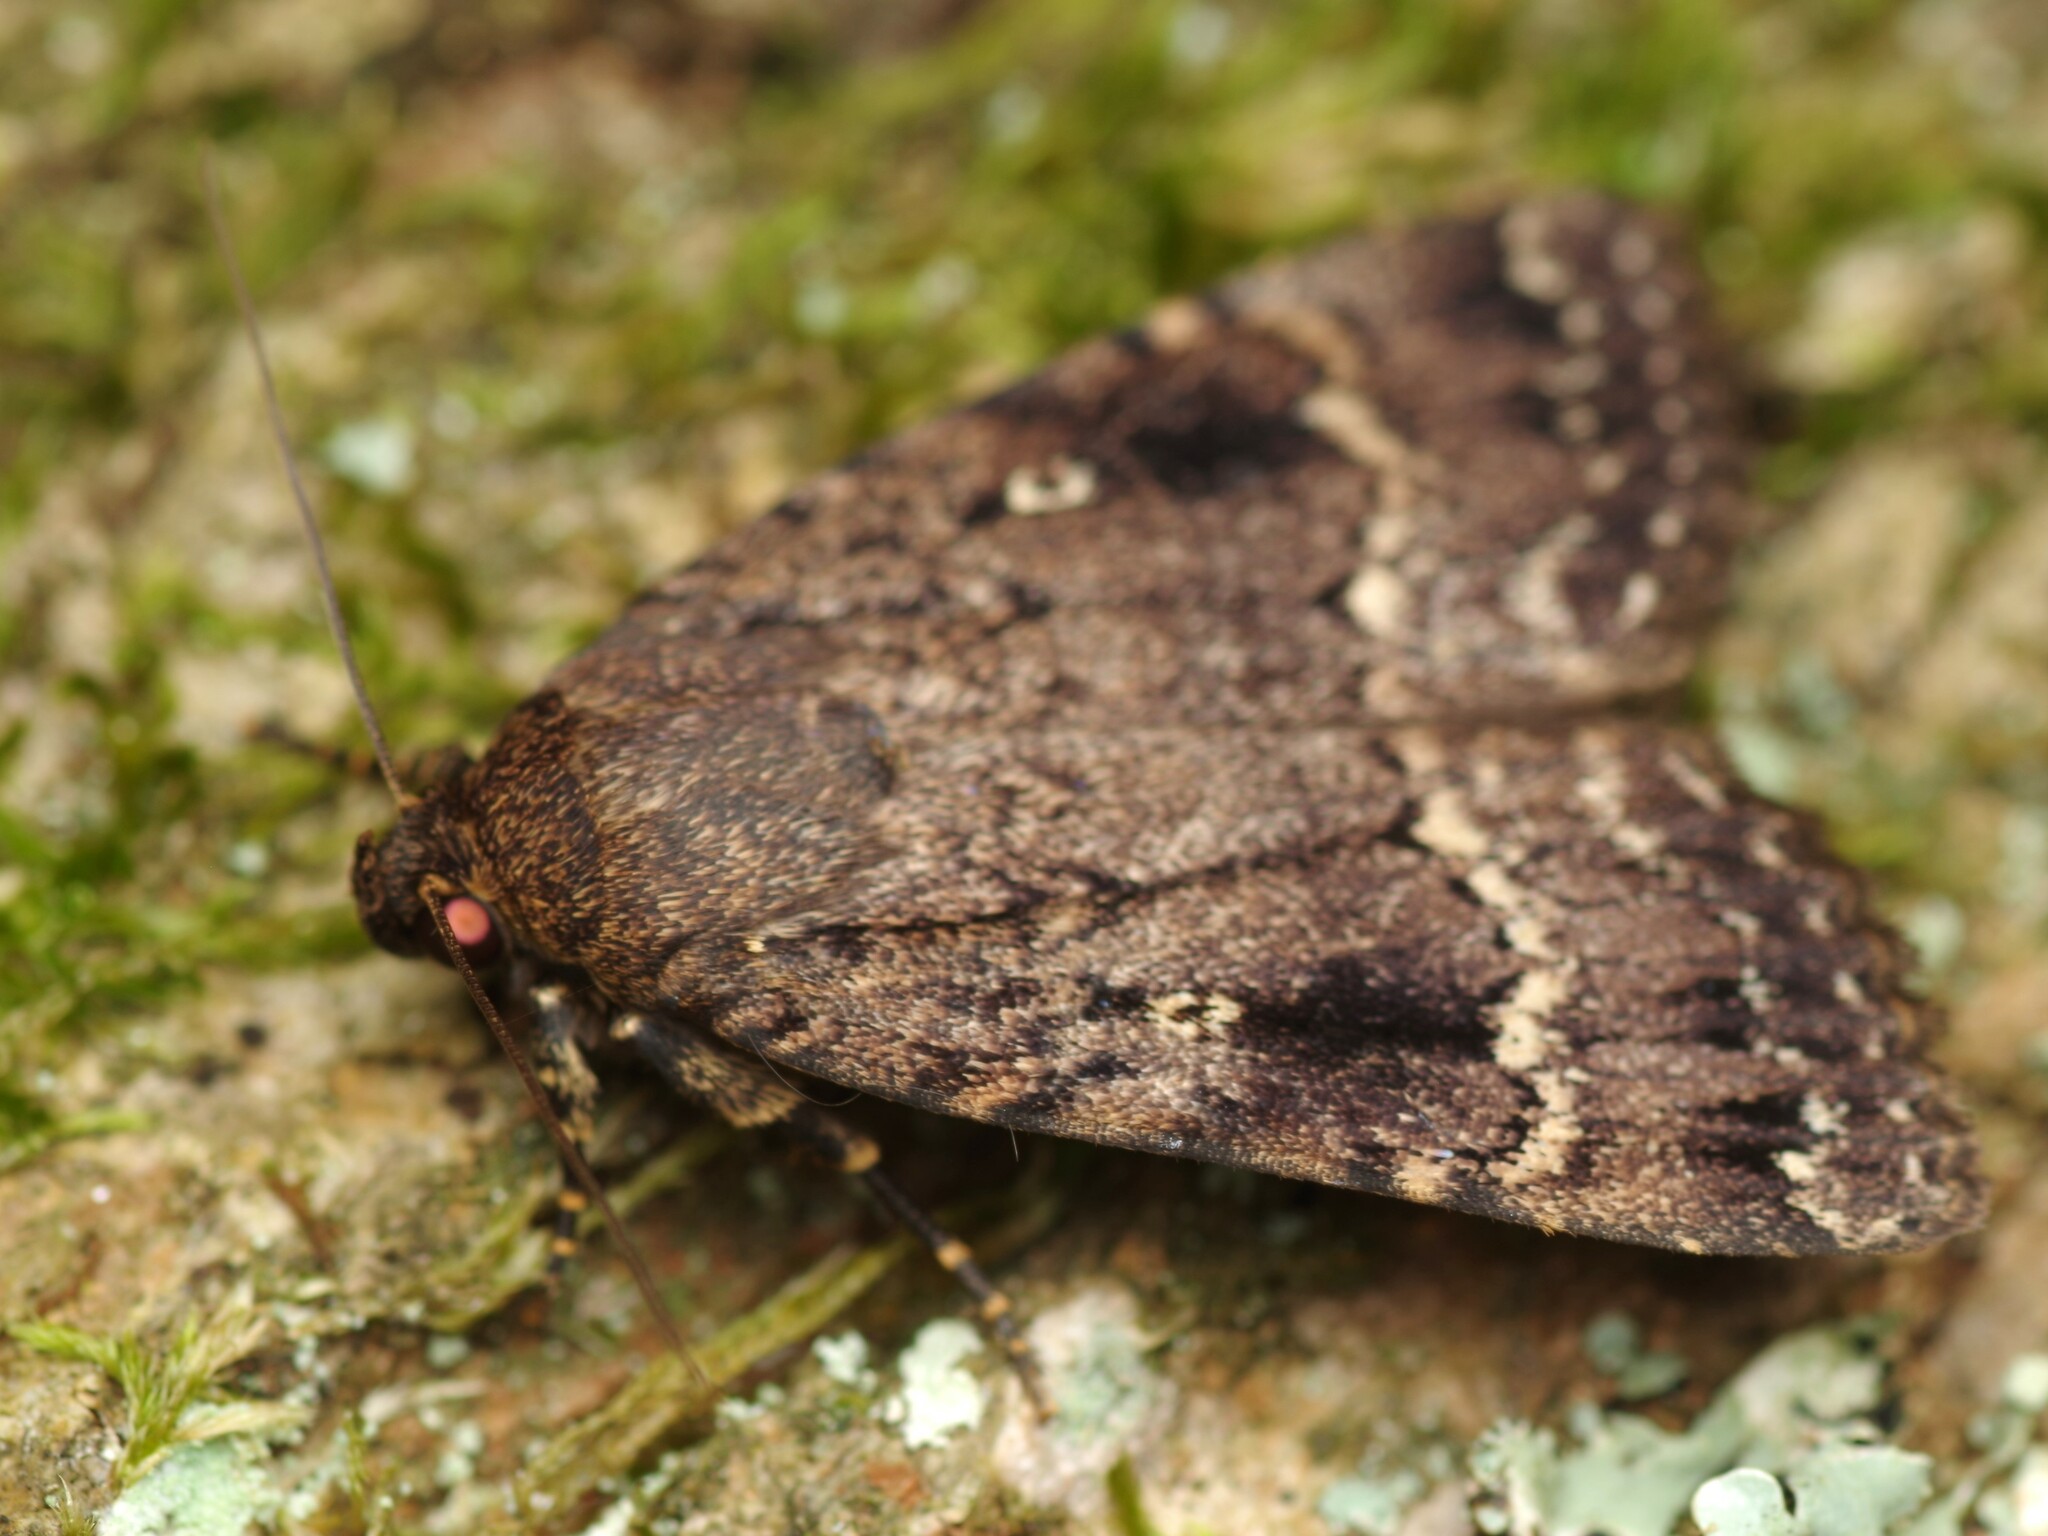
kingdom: Animalia
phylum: Arthropoda
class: Insecta
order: Lepidoptera
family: Noctuidae
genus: Amphipyra
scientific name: Amphipyra pyramidea
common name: Copper underwing
